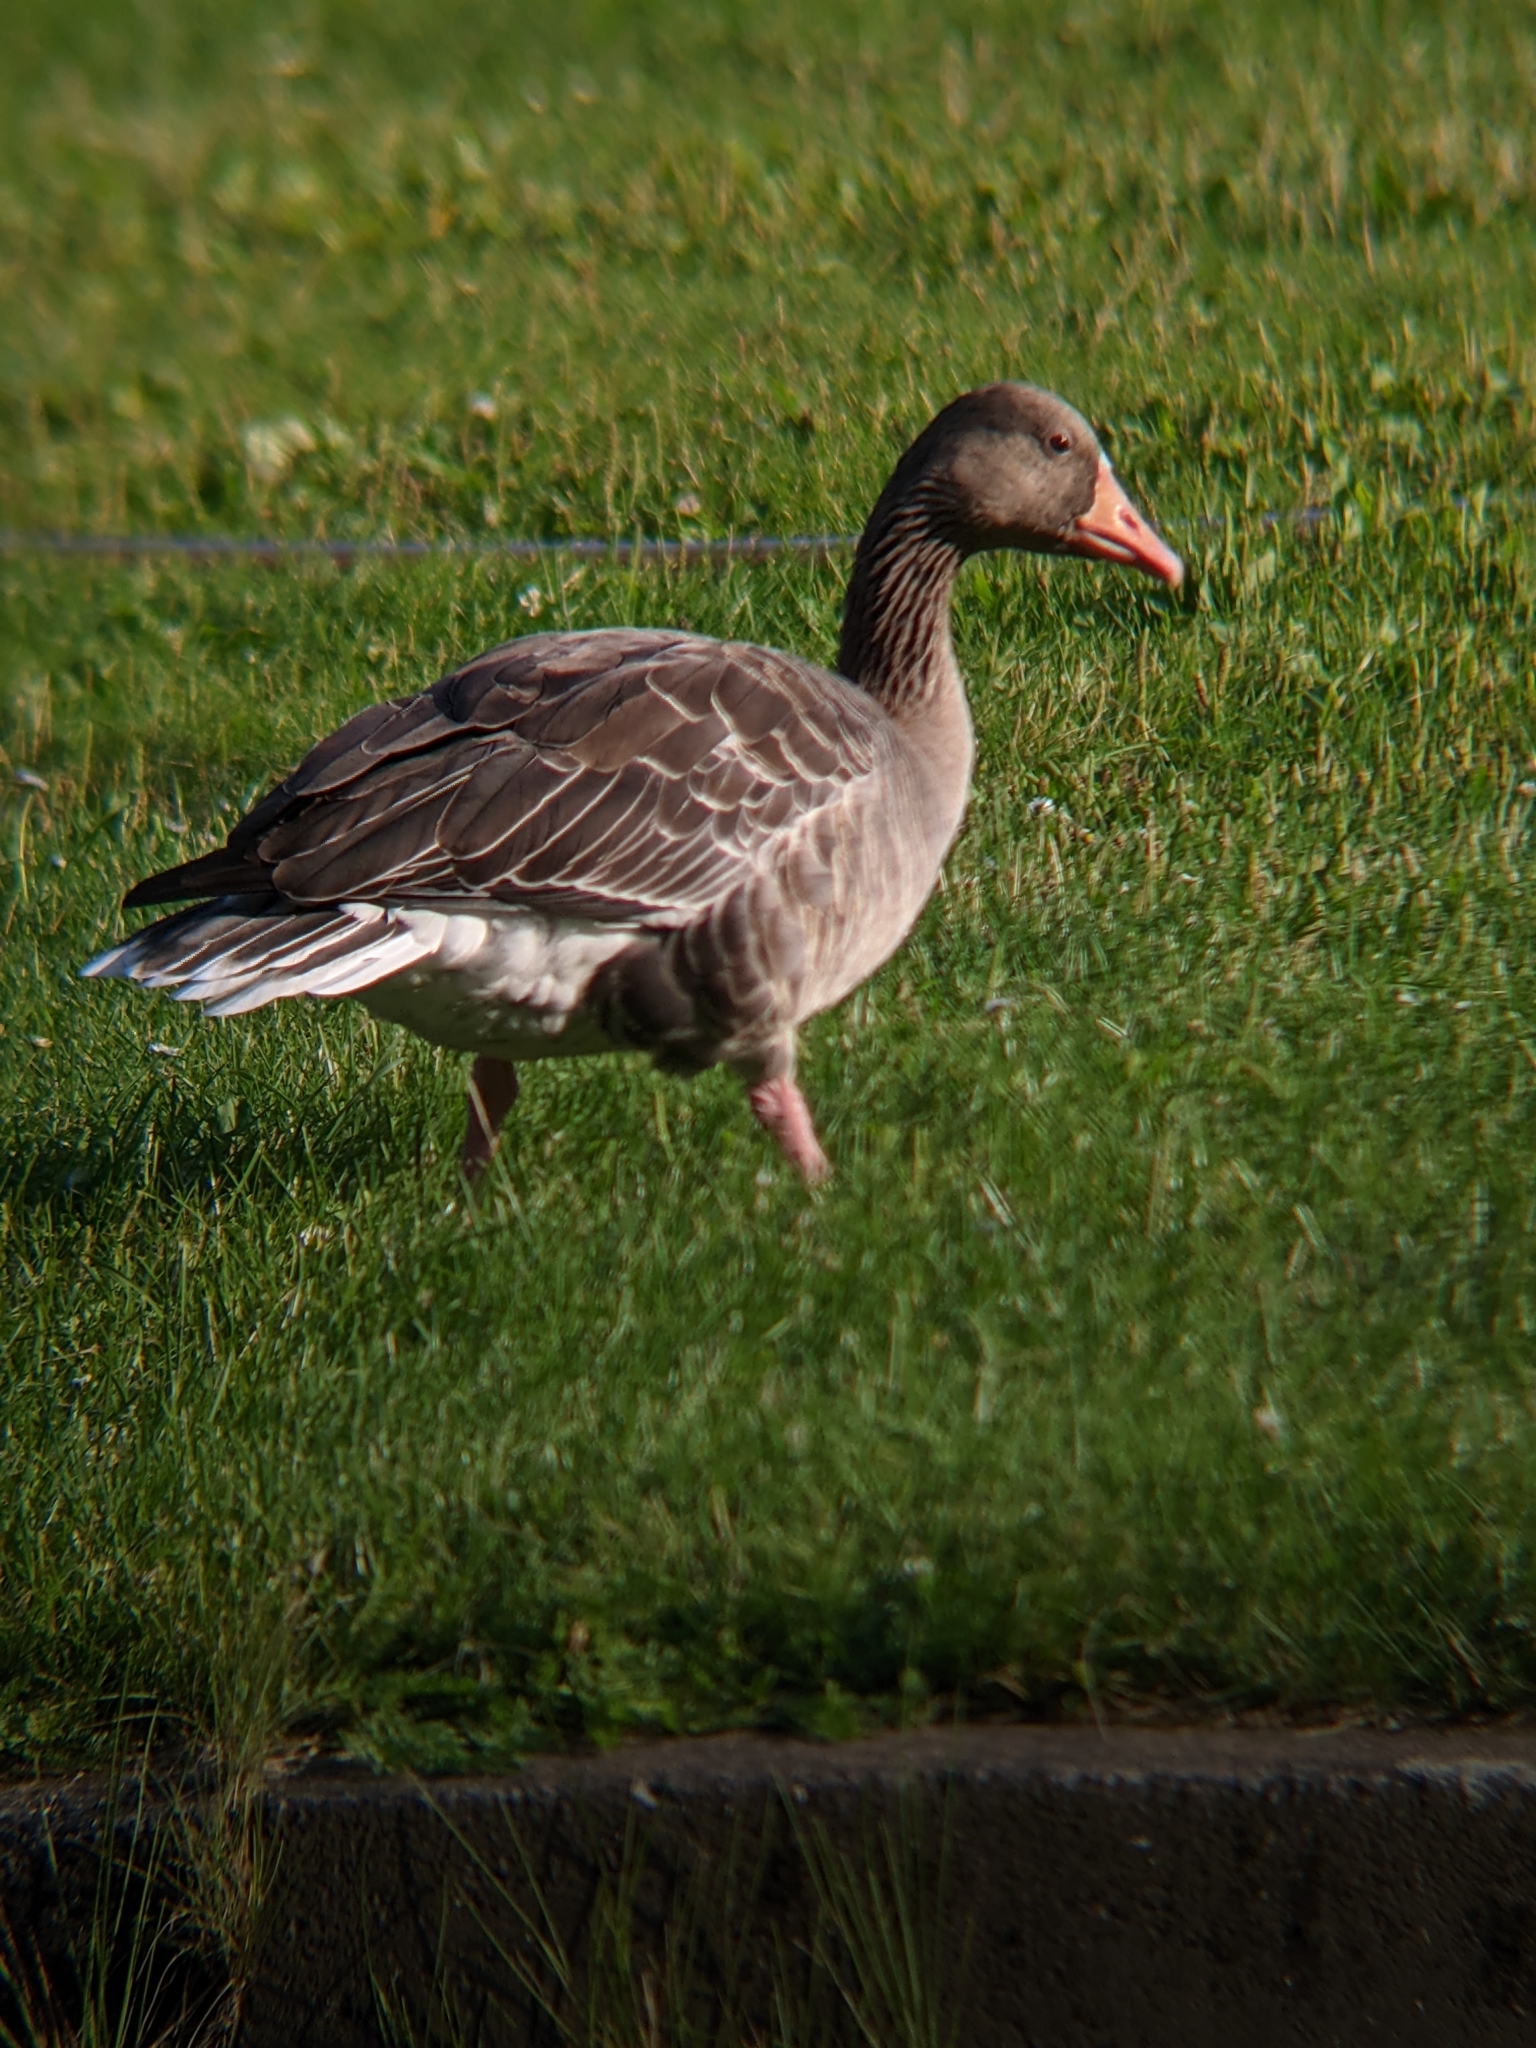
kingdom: Animalia
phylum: Chordata
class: Aves
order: Anseriformes
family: Anatidae
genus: Anser
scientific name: Anser anser
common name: Greylag goose
